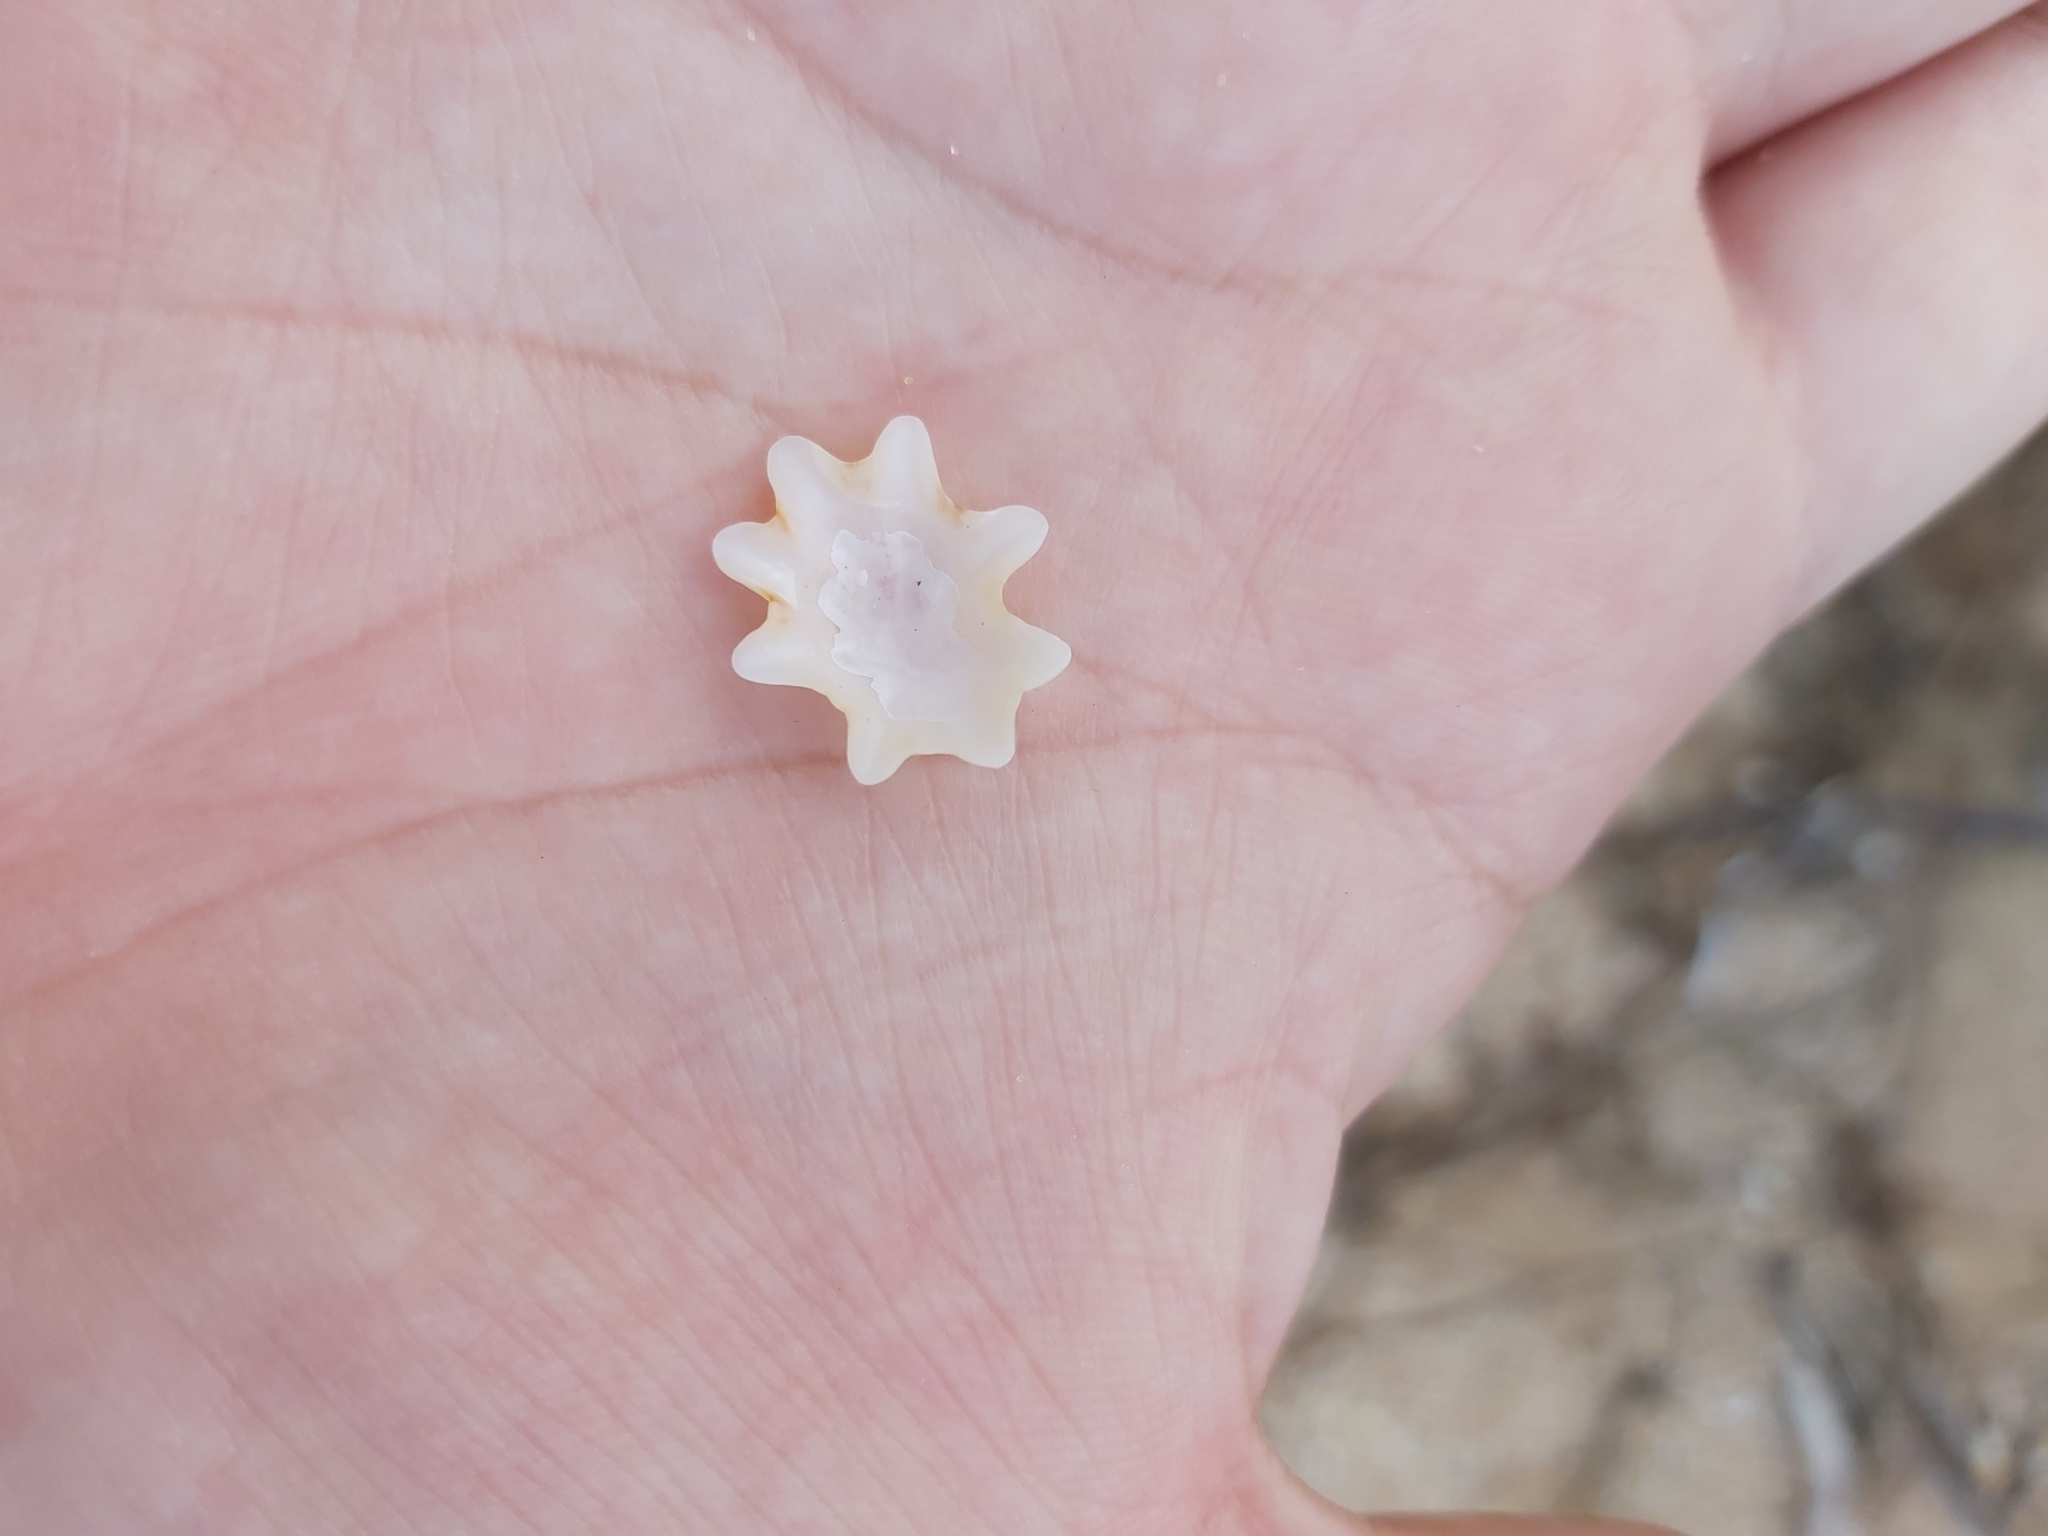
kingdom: Animalia
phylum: Mollusca
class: Gastropoda
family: Patellidae
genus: Scutellastra
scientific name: Scutellastra chapmani
